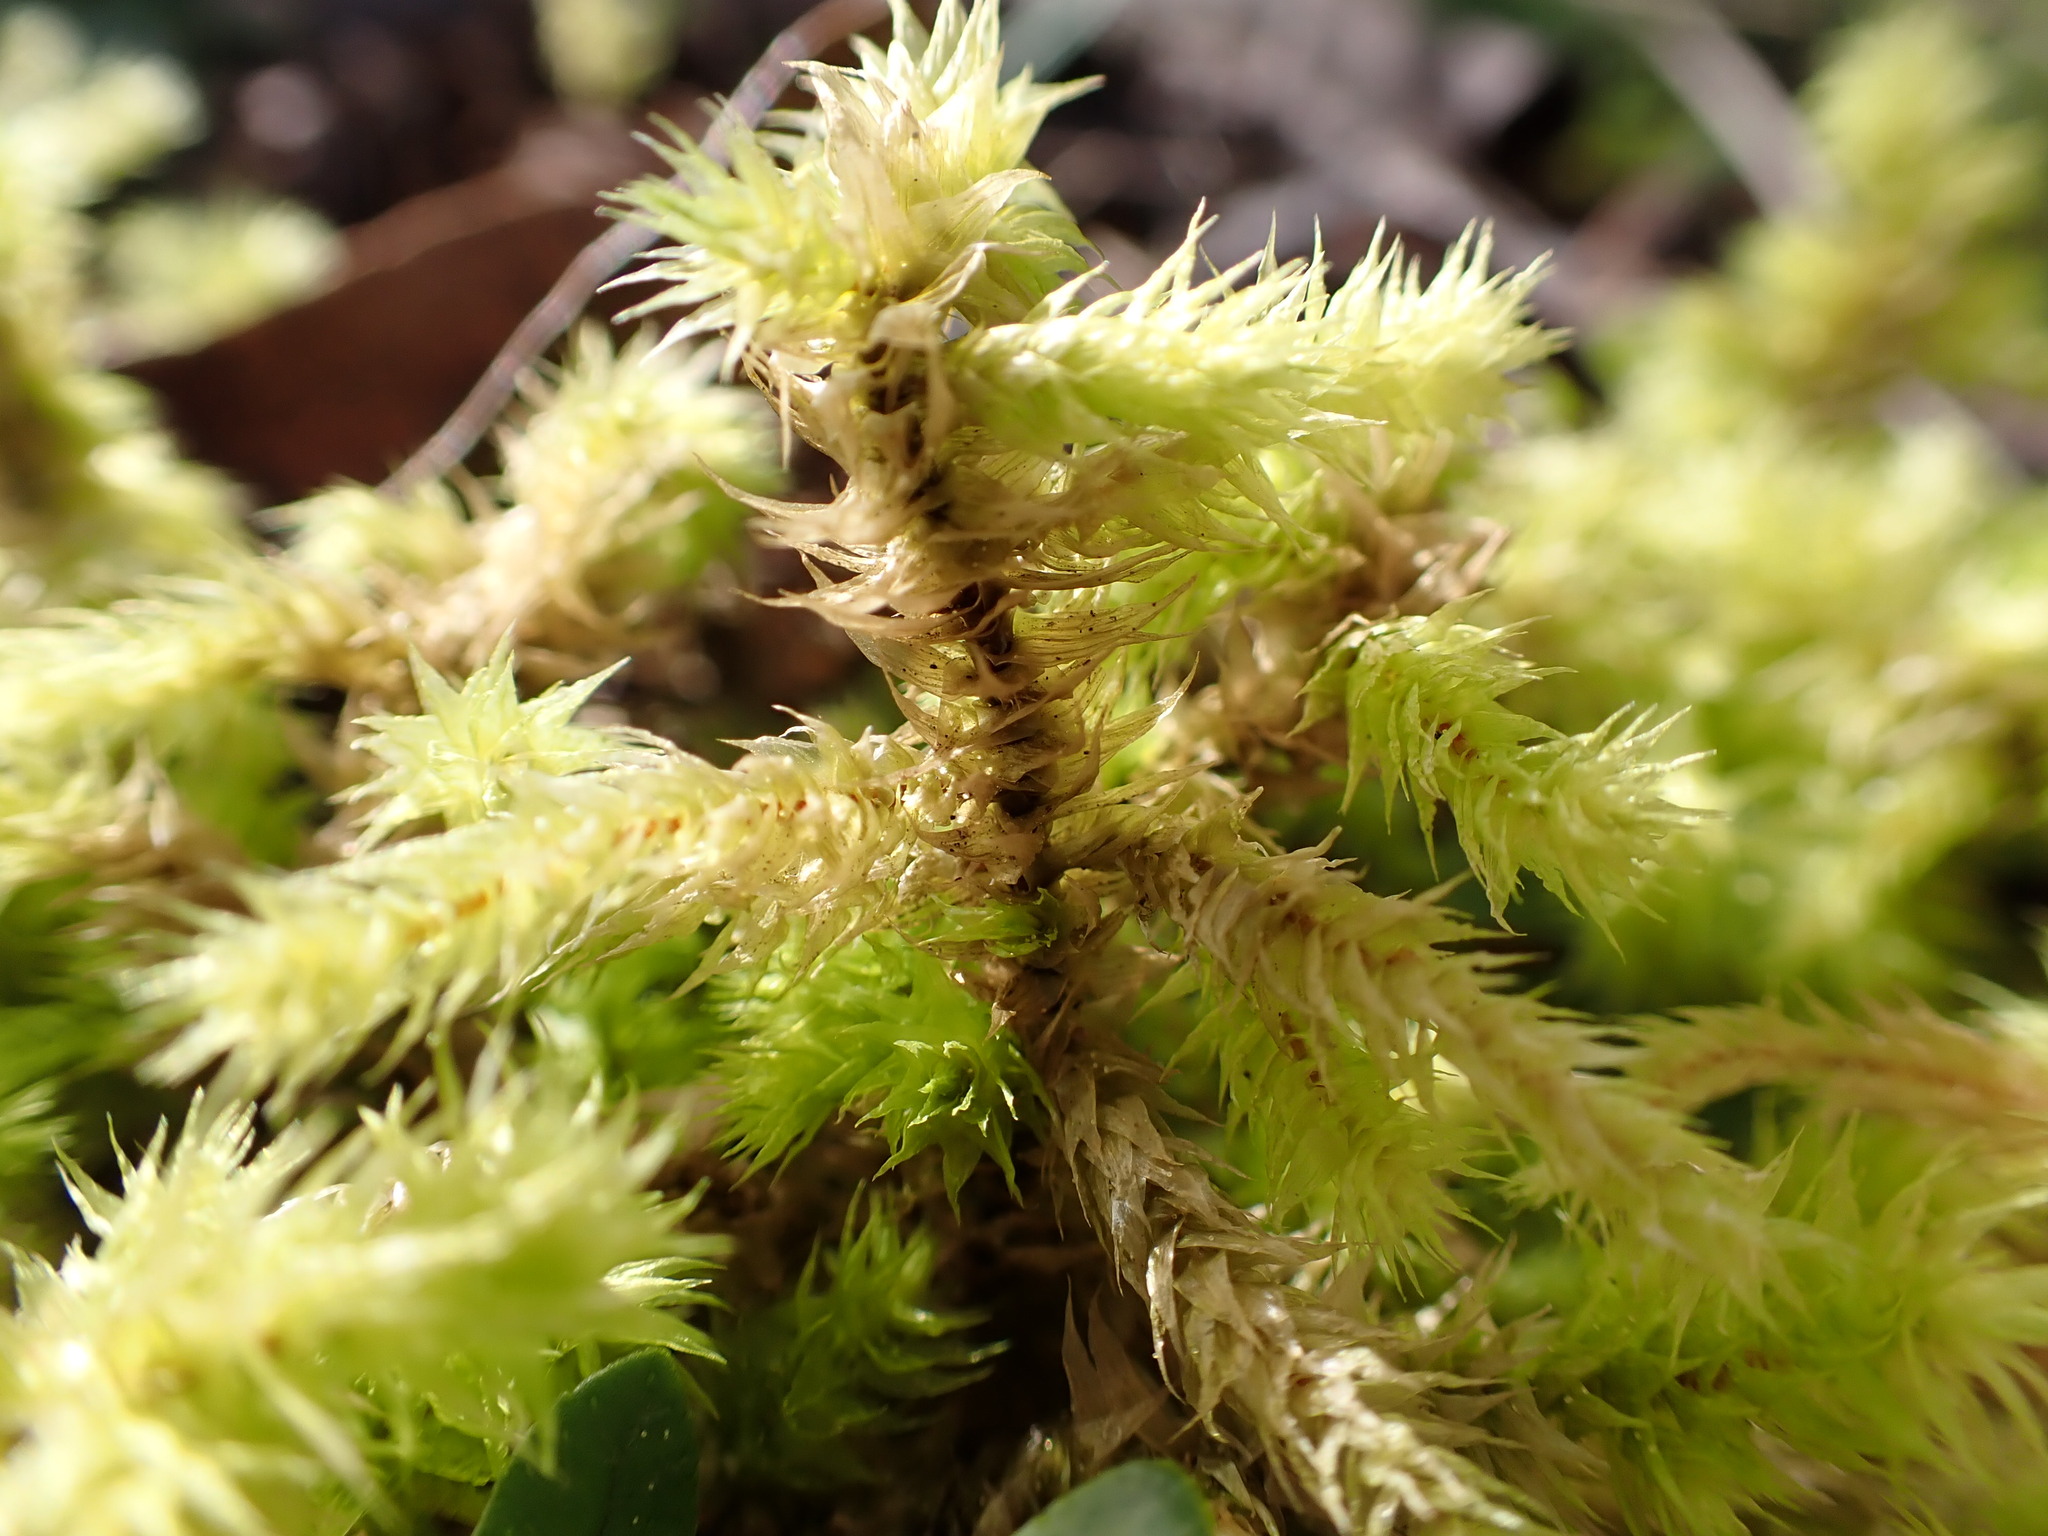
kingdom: Plantae
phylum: Bryophyta
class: Bryopsida
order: Hypnales
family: Hylocomiaceae
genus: Hylocomiadelphus
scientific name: Hylocomiadelphus triquetrus
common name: Rough goose neck moss
